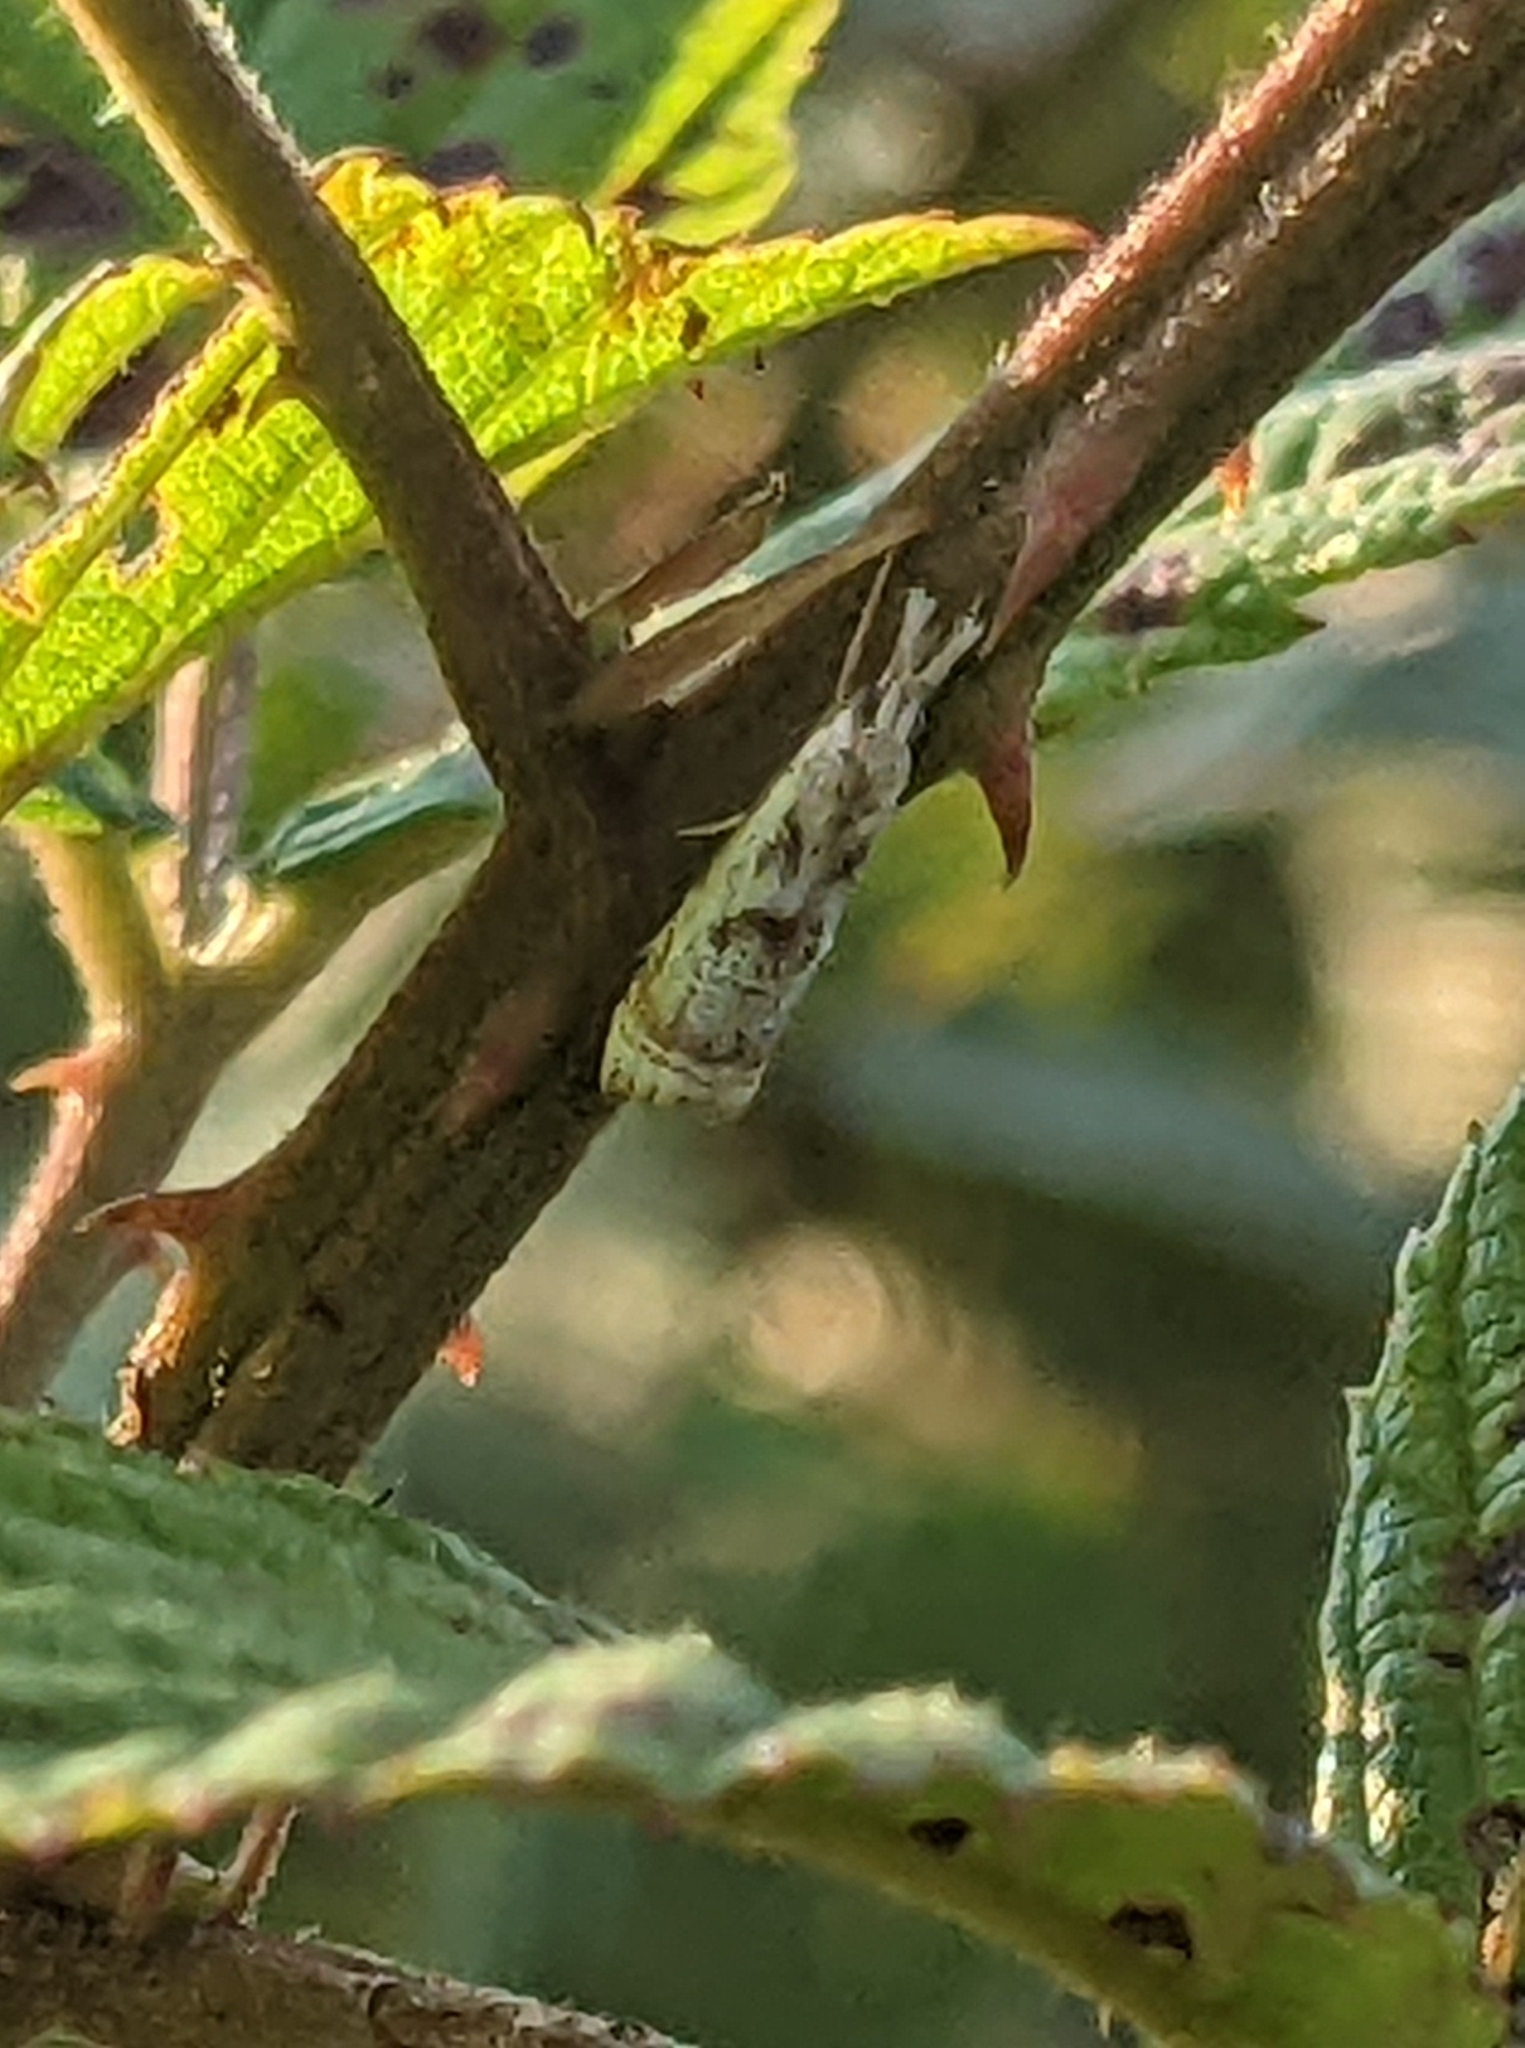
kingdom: Animalia
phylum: Arthropoda
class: Insecta
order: Lepidoptera
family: Crambidae
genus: Microcrambus
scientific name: Microcrambus elegans
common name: Elegant grass-veneer
